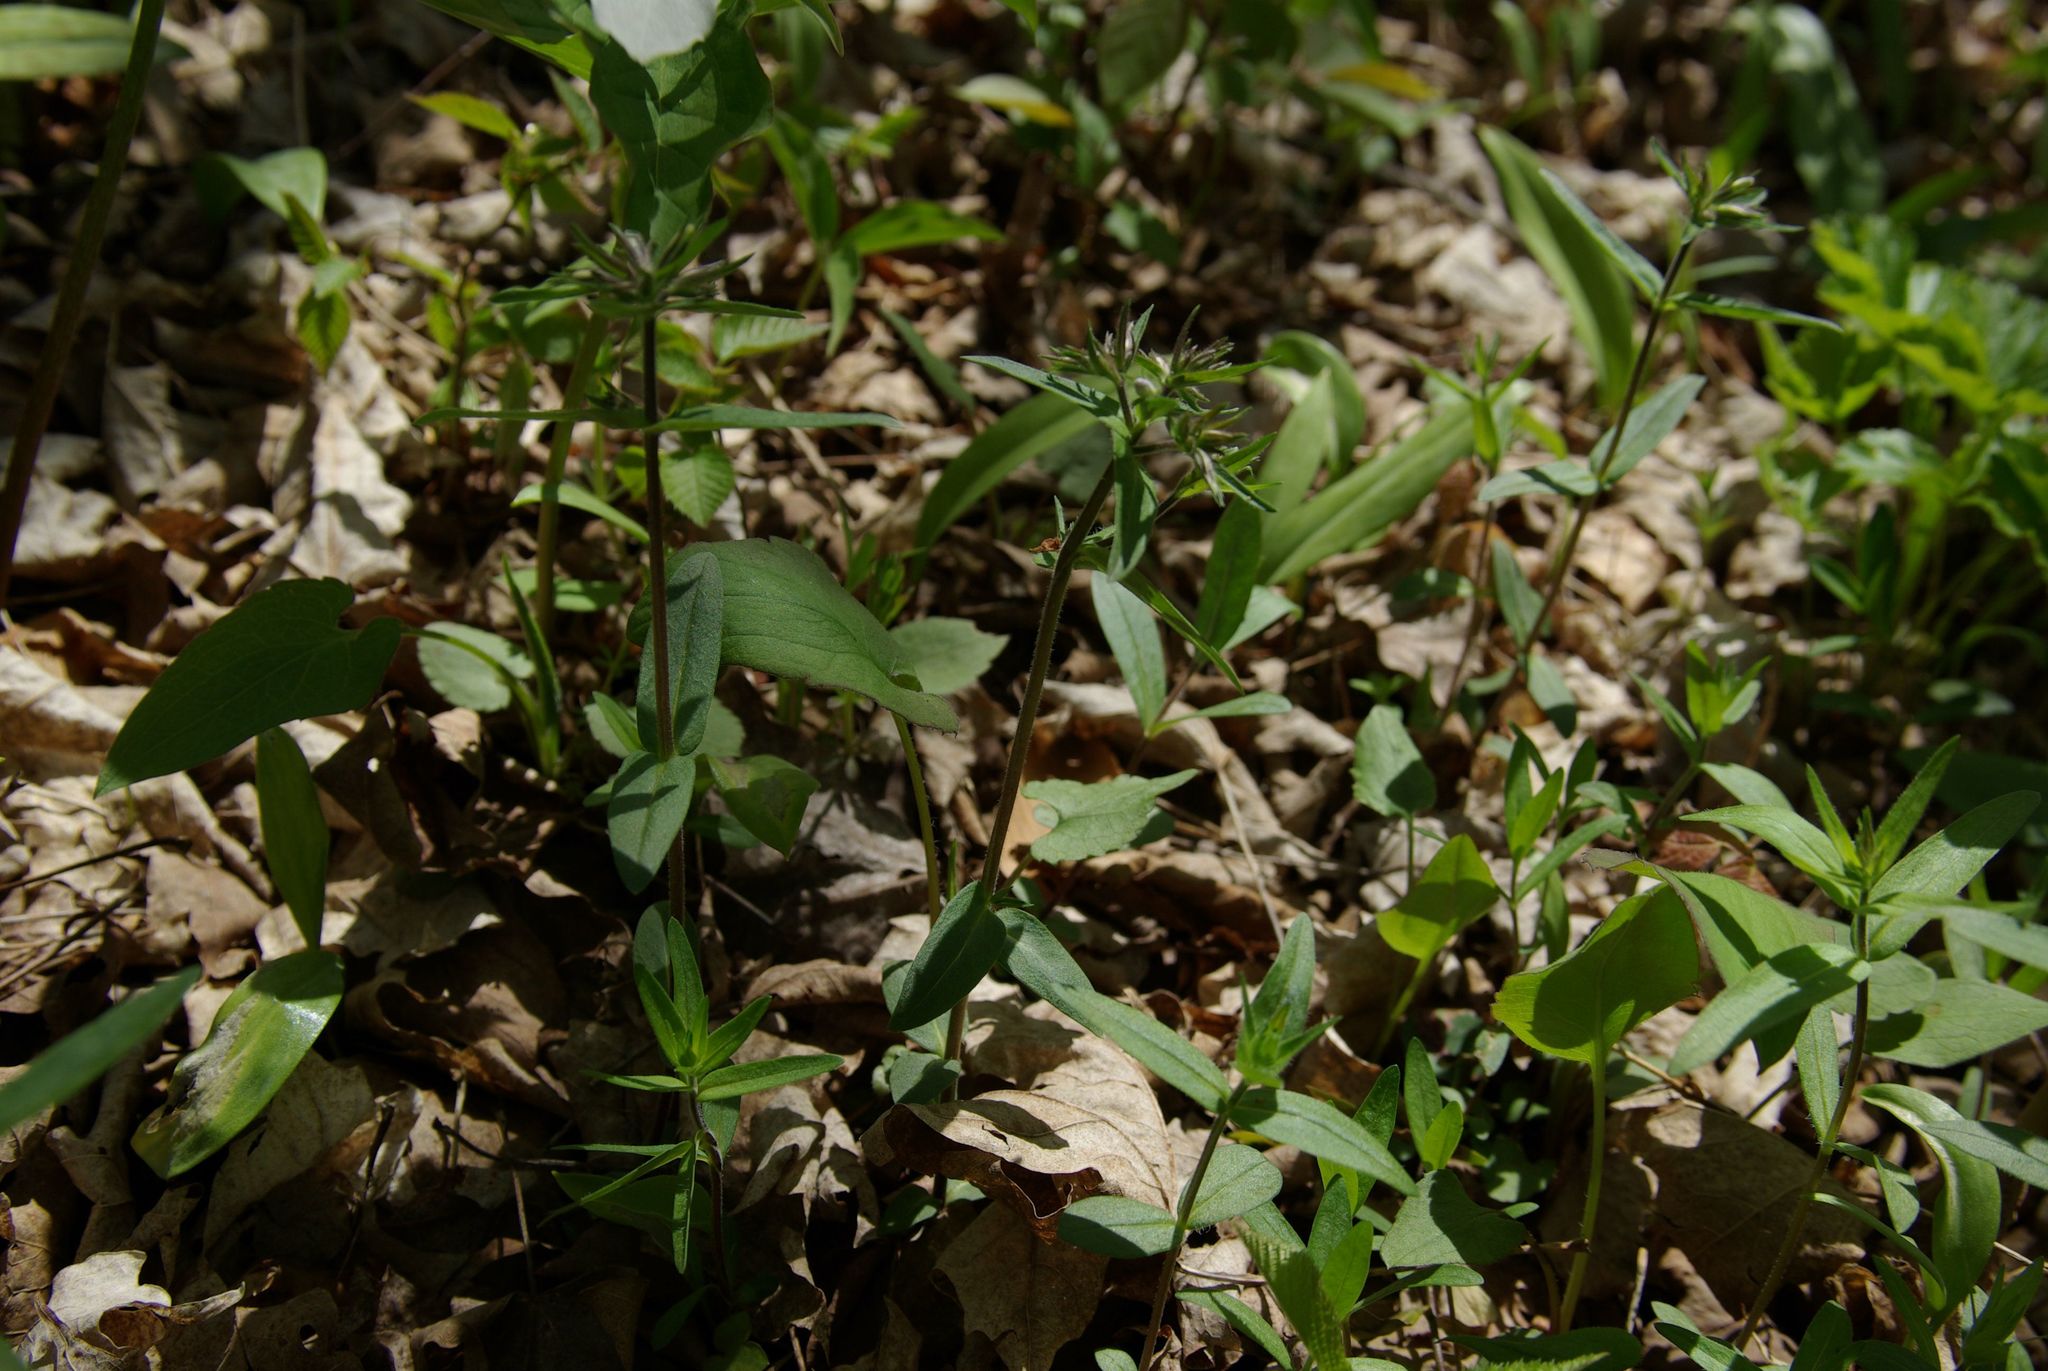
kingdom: Plantae
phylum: Tracheophyta
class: Magnoliopsida
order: Ericales
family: Polemoniaceae
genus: Phlox
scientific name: Phlox divaricata
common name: Blue phlox
